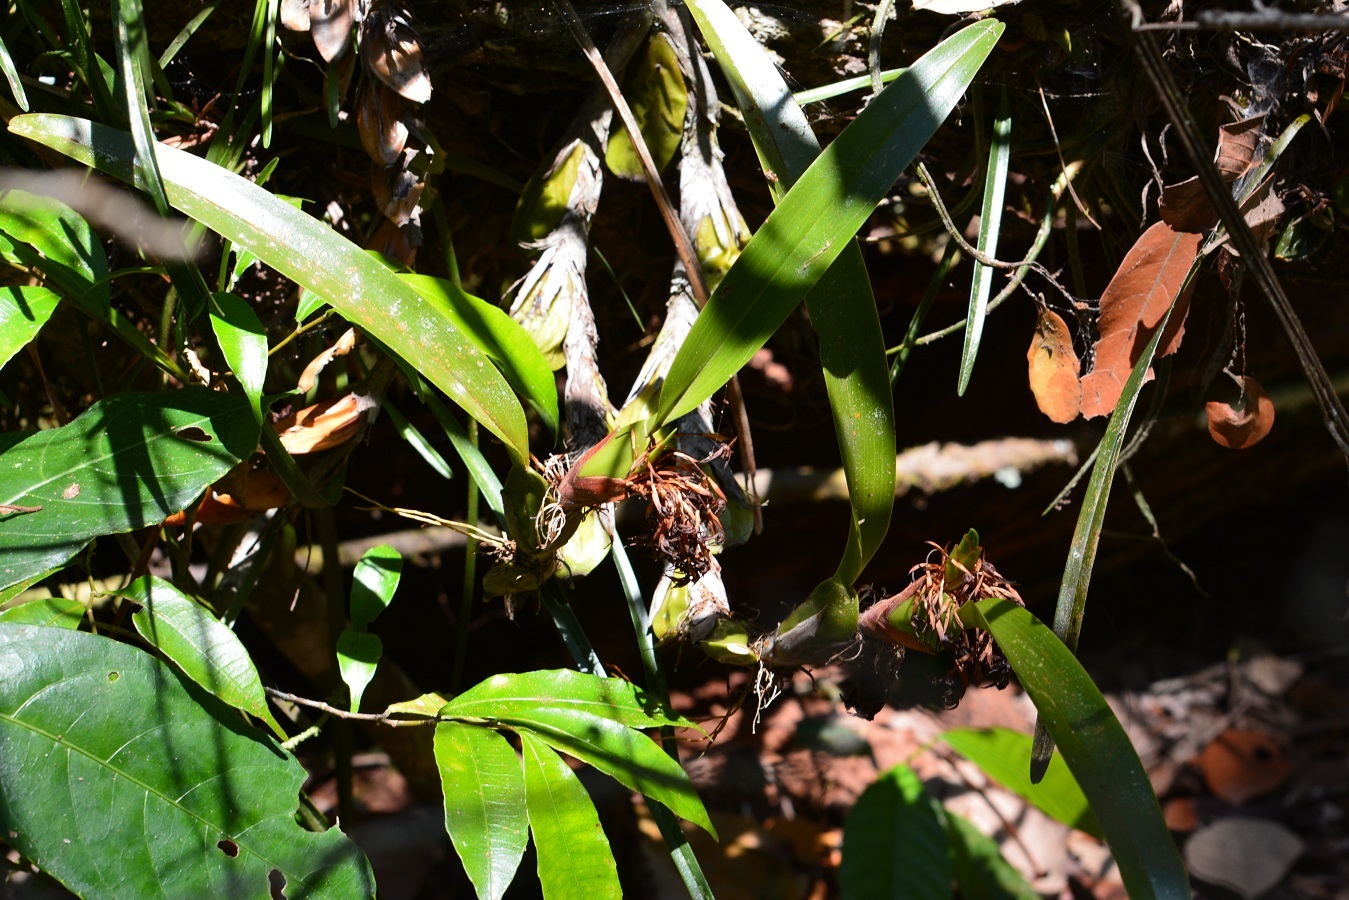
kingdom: Plantae
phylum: Tracheophyta
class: Liliopsida
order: Asparagales
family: Orchidaceae
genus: Maxillaria
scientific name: Maxillaria densa
